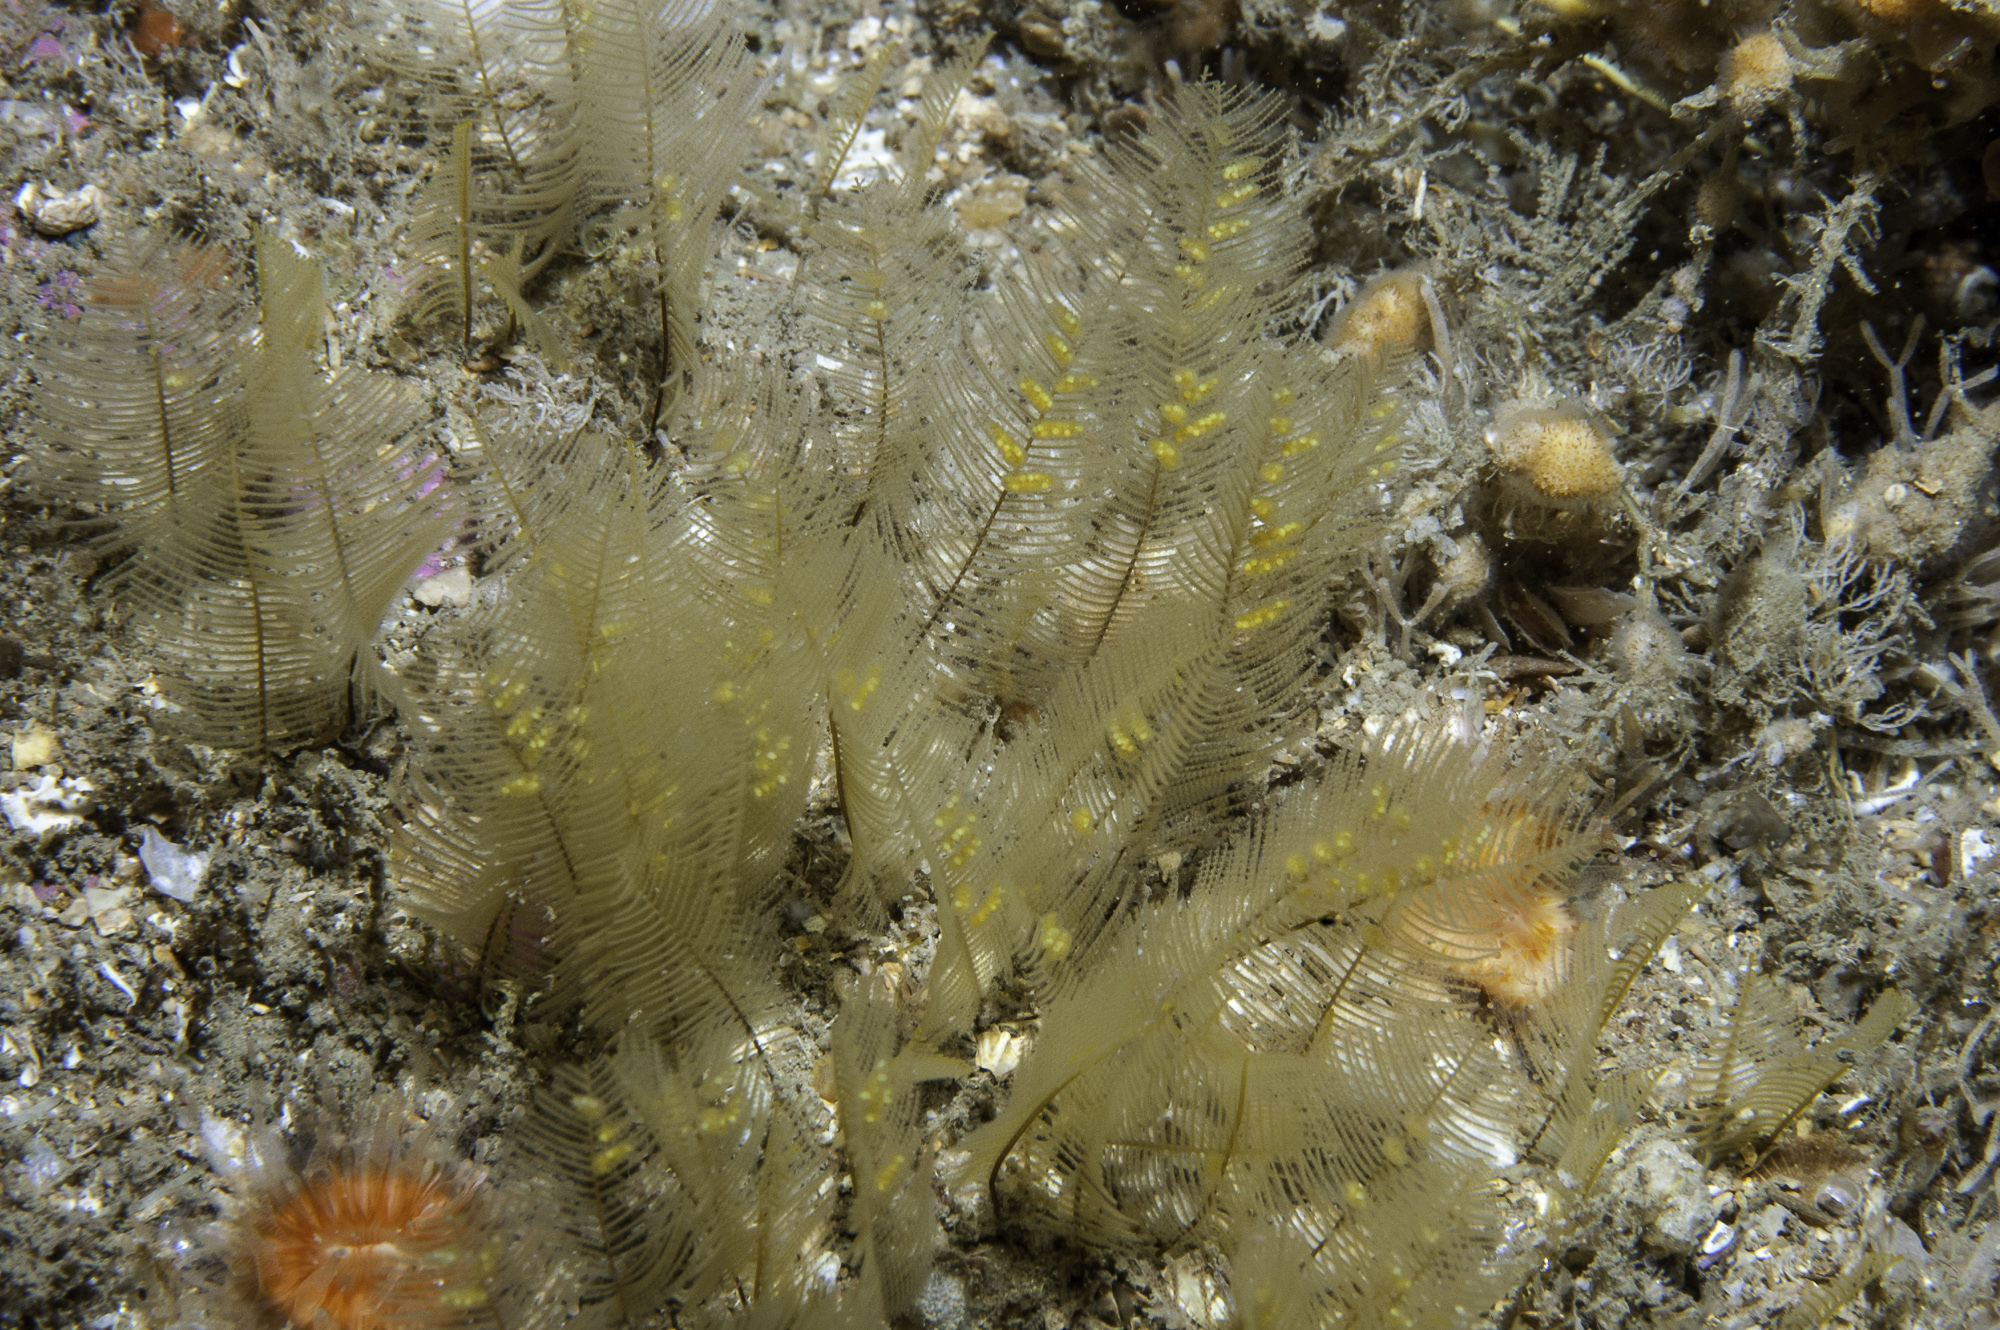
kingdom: Animalia
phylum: Cnidaria
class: Hydrozoa
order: Leptothecata
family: Aglaopheniidae
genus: Aglaophenia
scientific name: Aglaophenia tubulifera
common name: Plume hydroid
